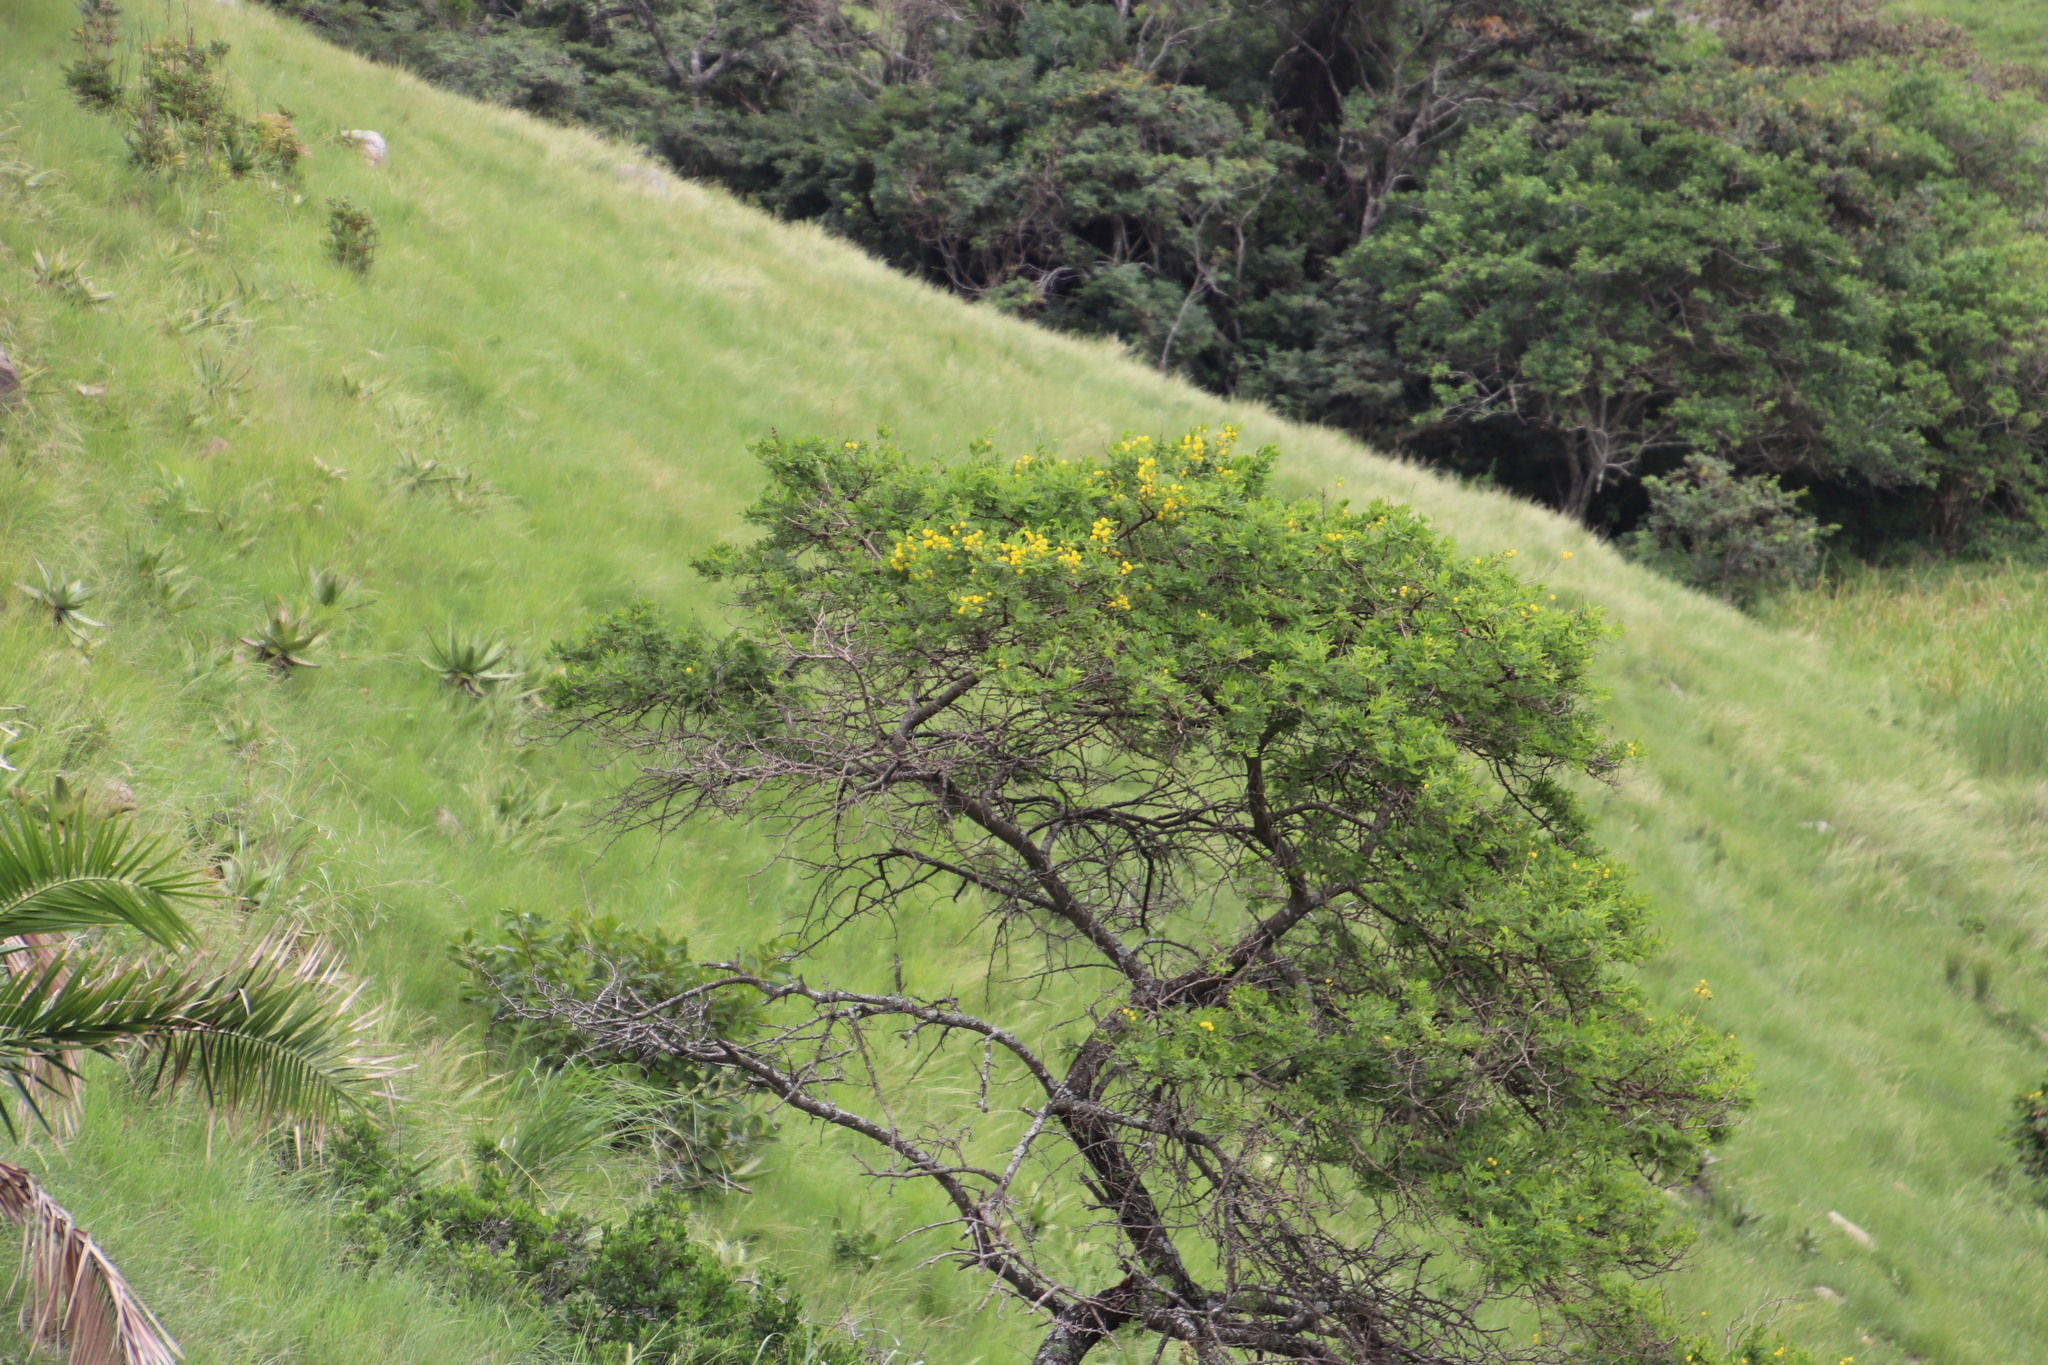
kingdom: Plantae
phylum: Tracheophyta
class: Magnoliopsida
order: Fabales
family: Fabaceae
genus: Vachellia
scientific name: Vachellia karroo
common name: Sweet thorn
